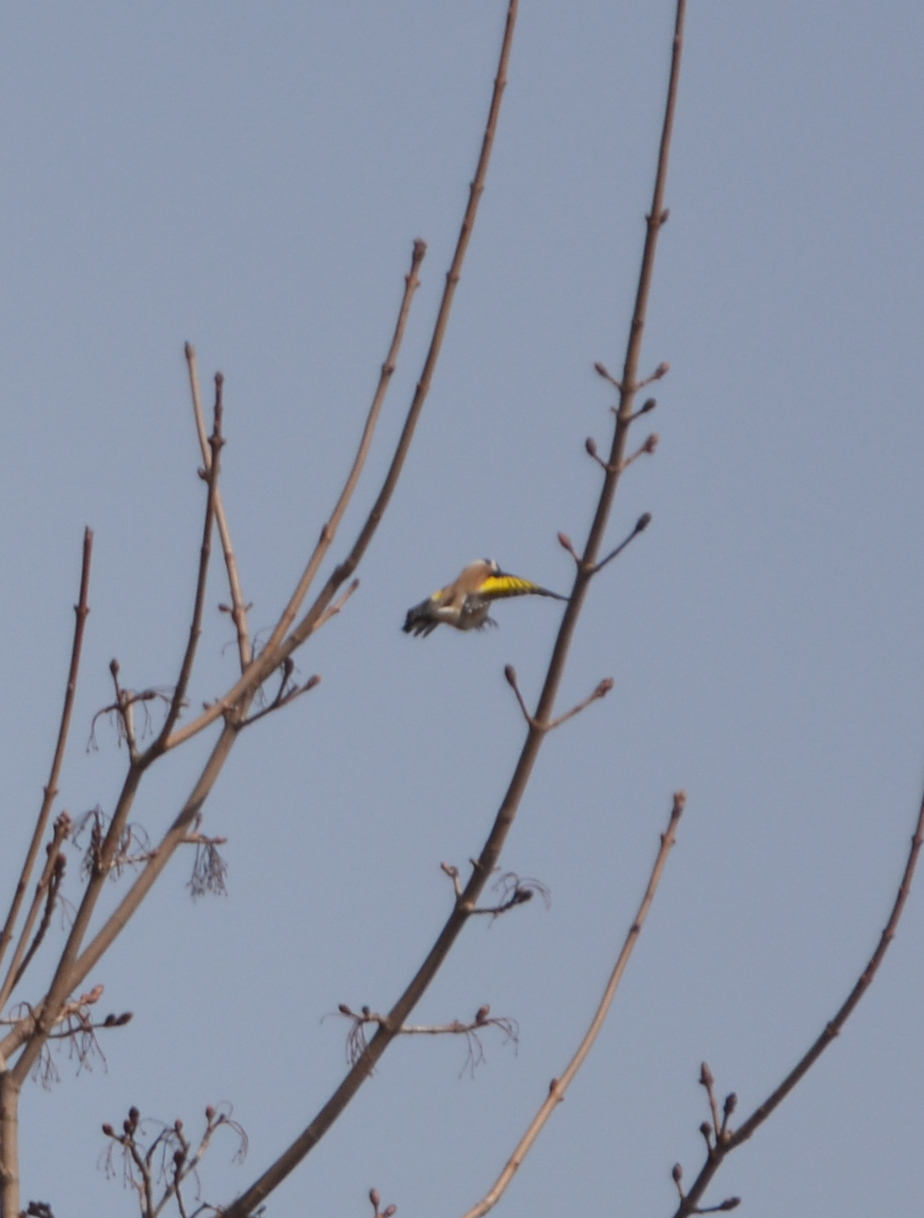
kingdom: Animalia
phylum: Chordata
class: Aves
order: Passeriformes
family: Fringillidae
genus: Carduelis
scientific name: Carduelis carduelis
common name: European goldfinch
